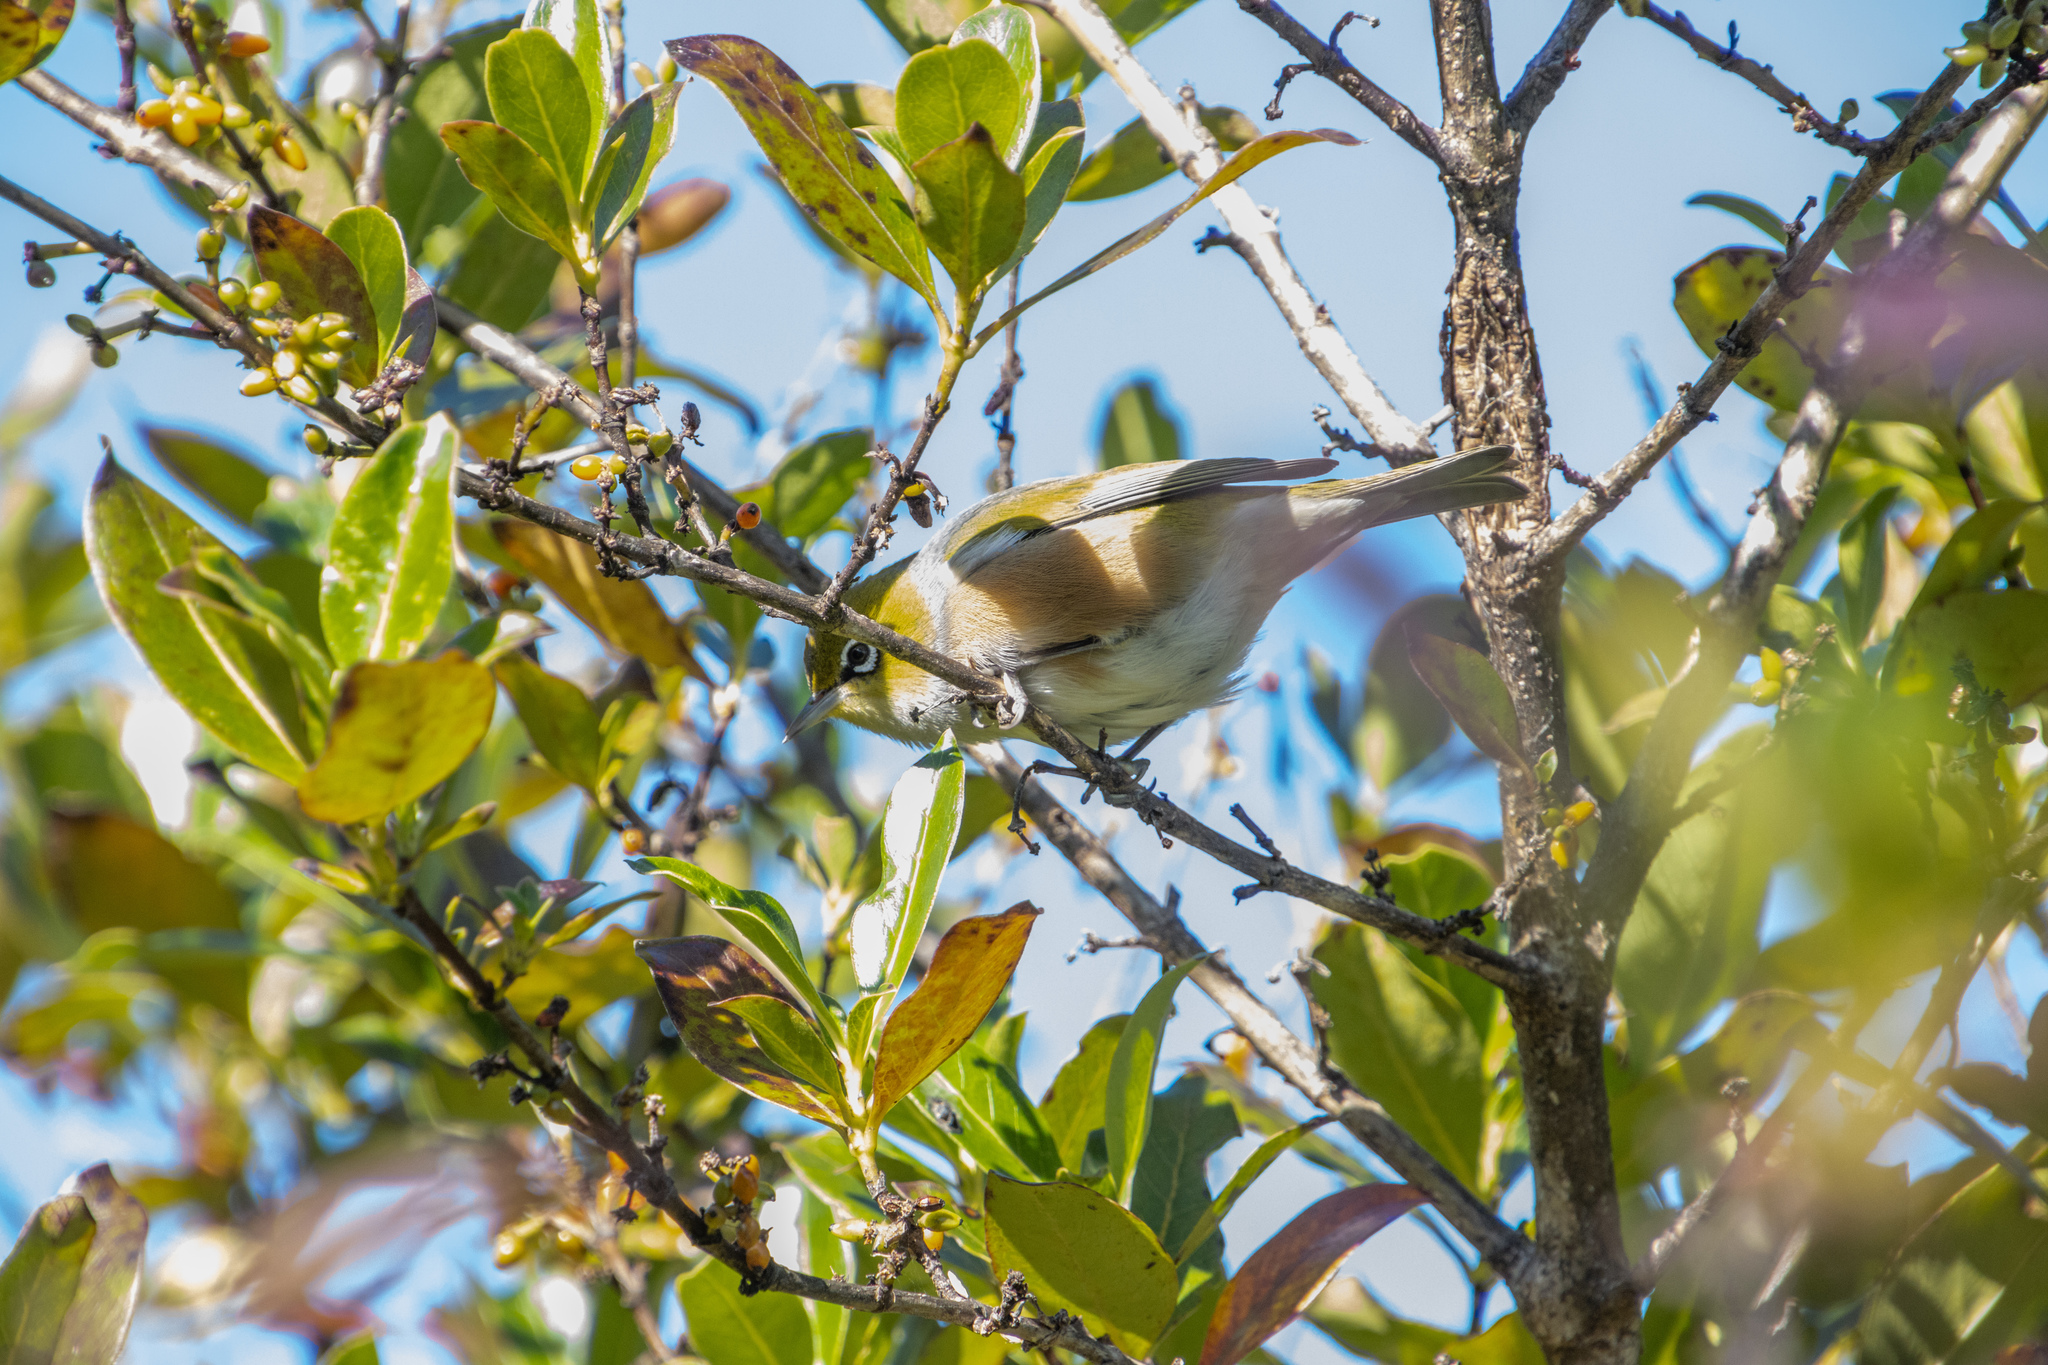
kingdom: Animalia
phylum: Chordata
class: Aves
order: Passeriformes
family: Zosteropidae
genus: Zosterops
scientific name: Zosterops lateralis
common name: Silvereye
